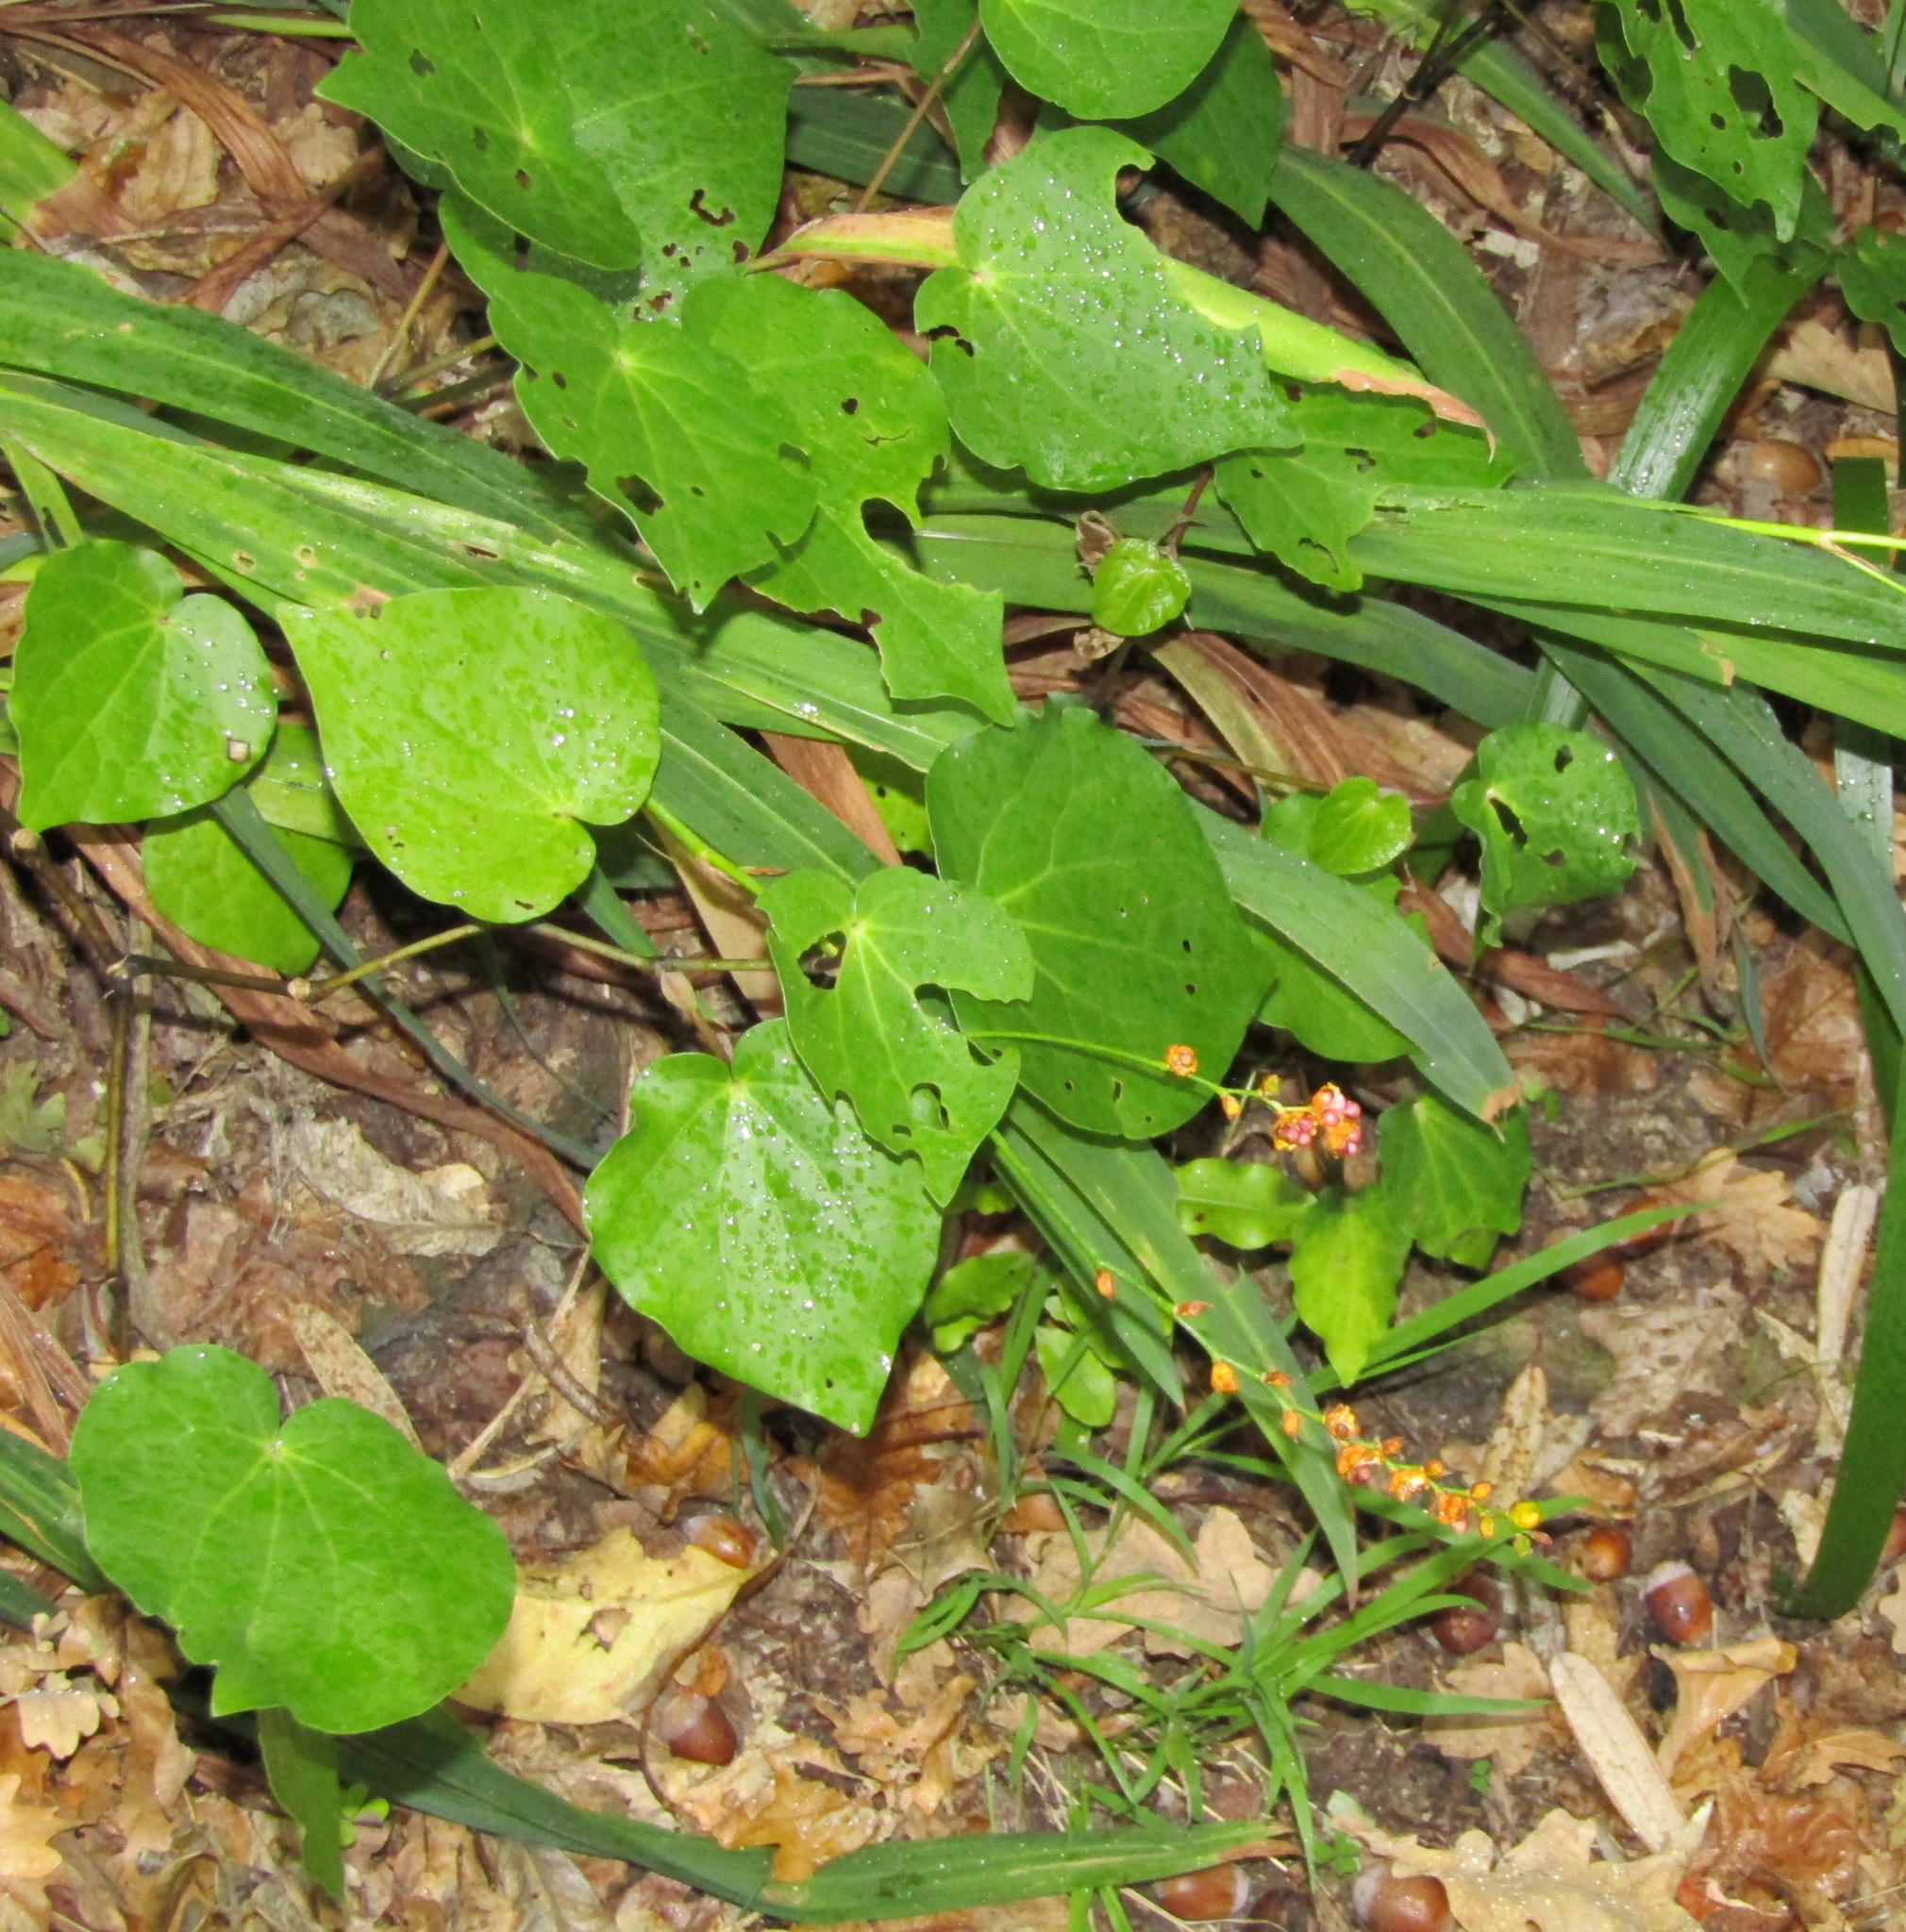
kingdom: Plantae
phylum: Tracheophyta
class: Magnoliopsida
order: Piperales
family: Piperaceae
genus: Macropiper
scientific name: Macropiper excelsum
